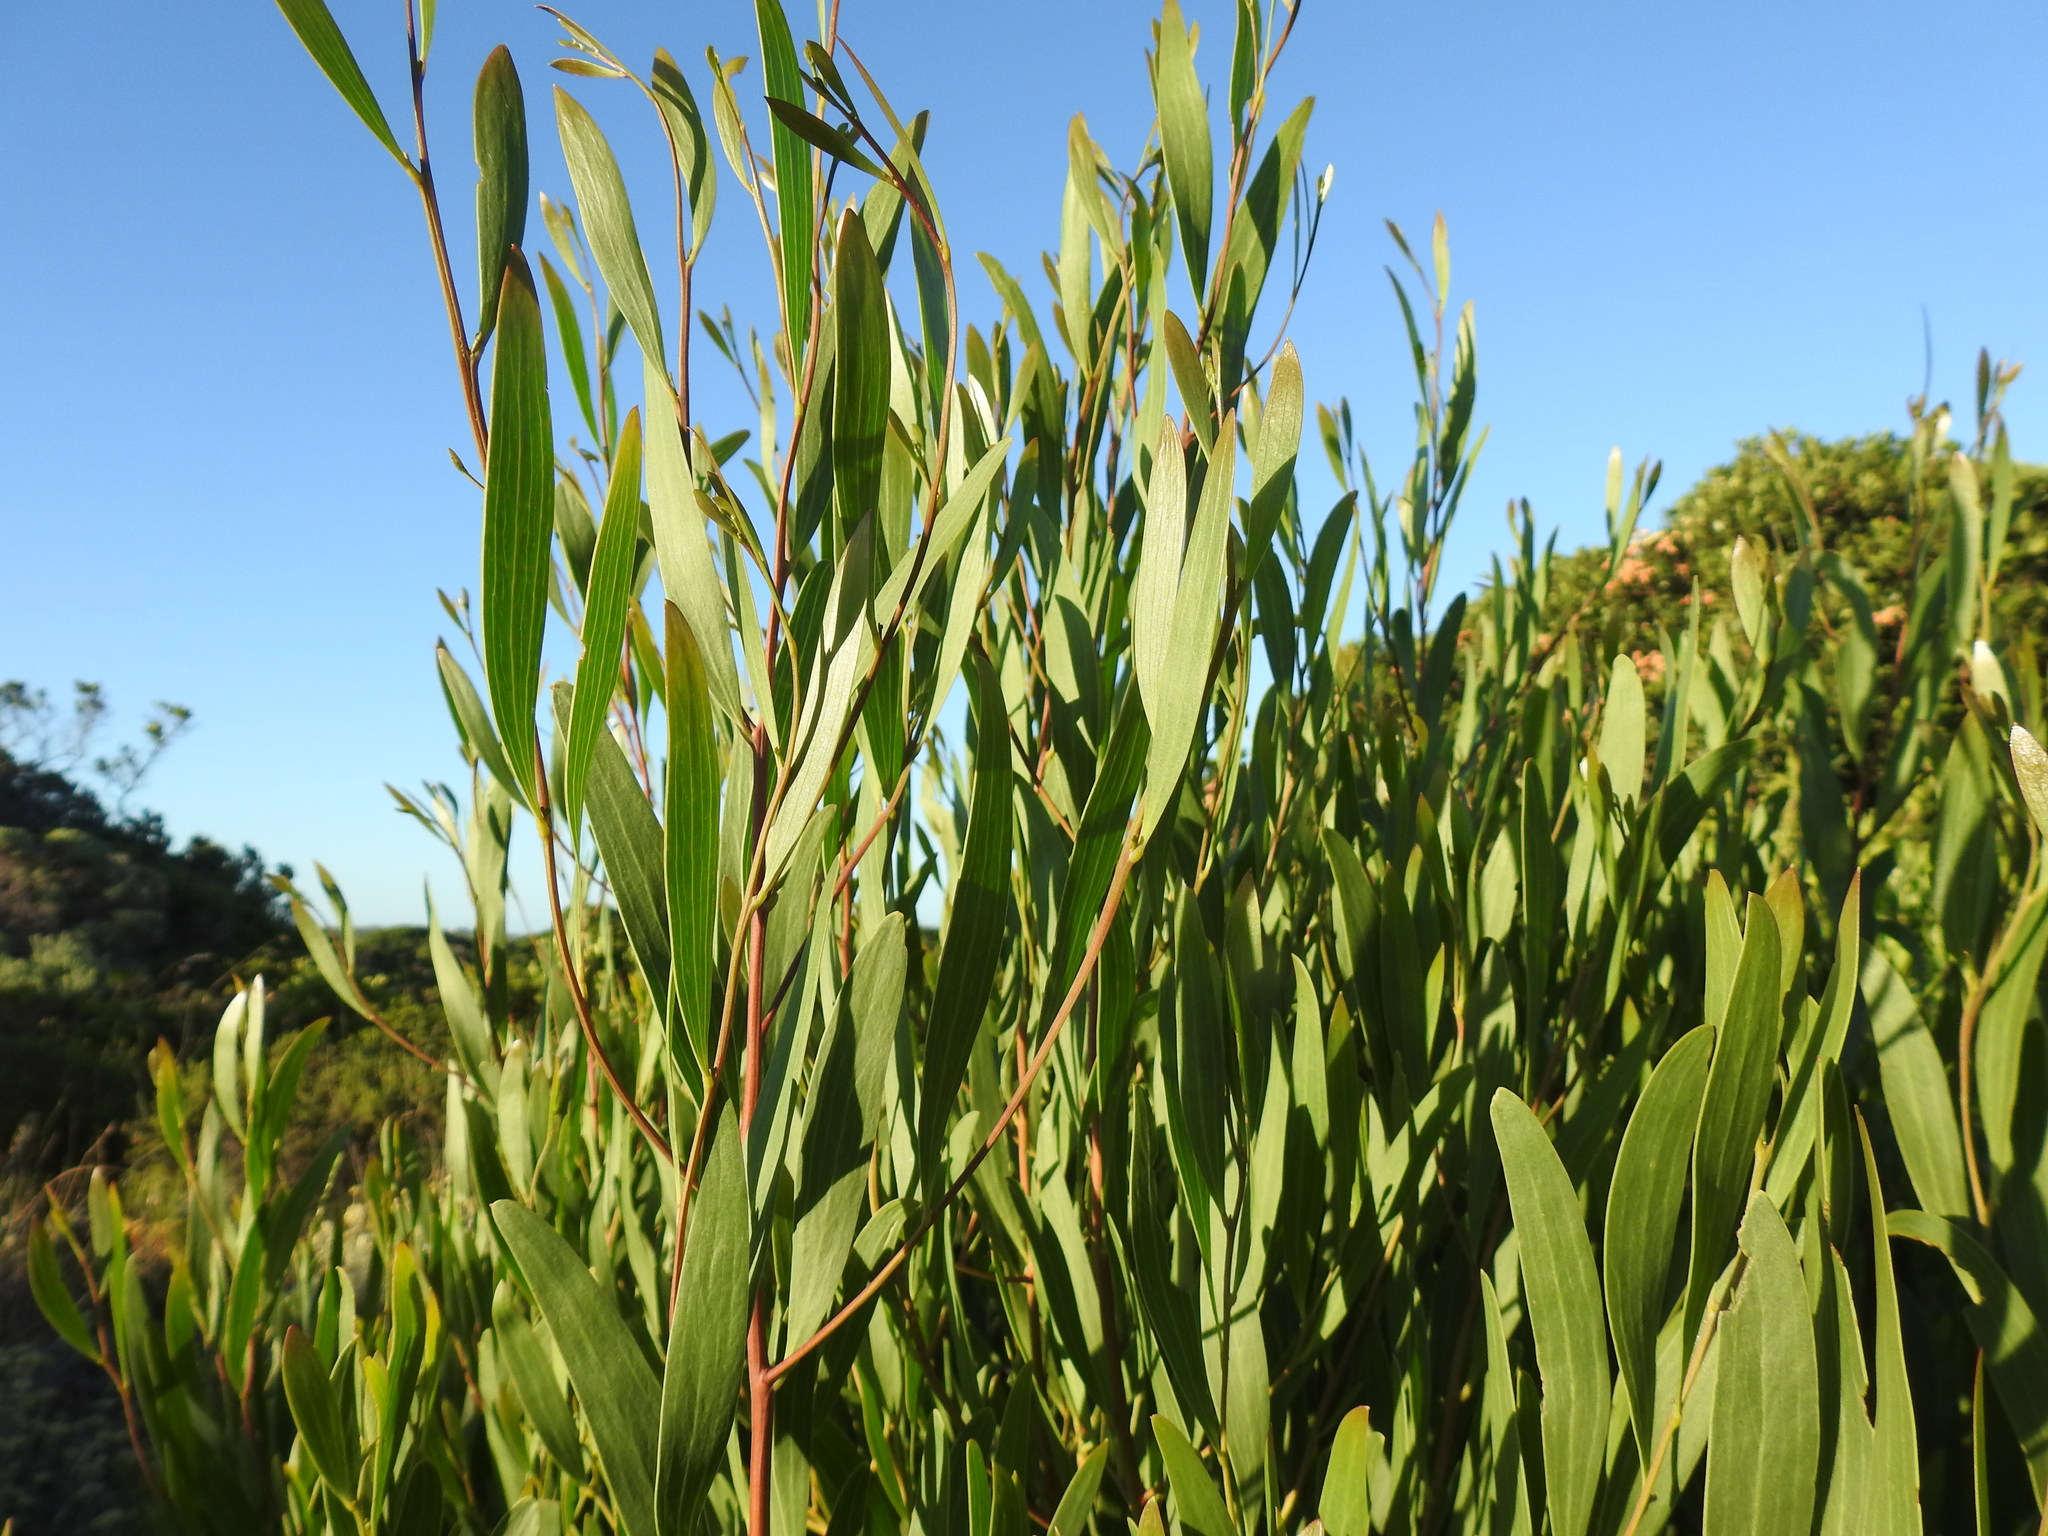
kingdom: Plantae
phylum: Tracheophyta
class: Magnoliopsida
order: Fabales
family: Fabaceae
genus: Acacia
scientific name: Acacia longifolia
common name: Sydney golden wattle
